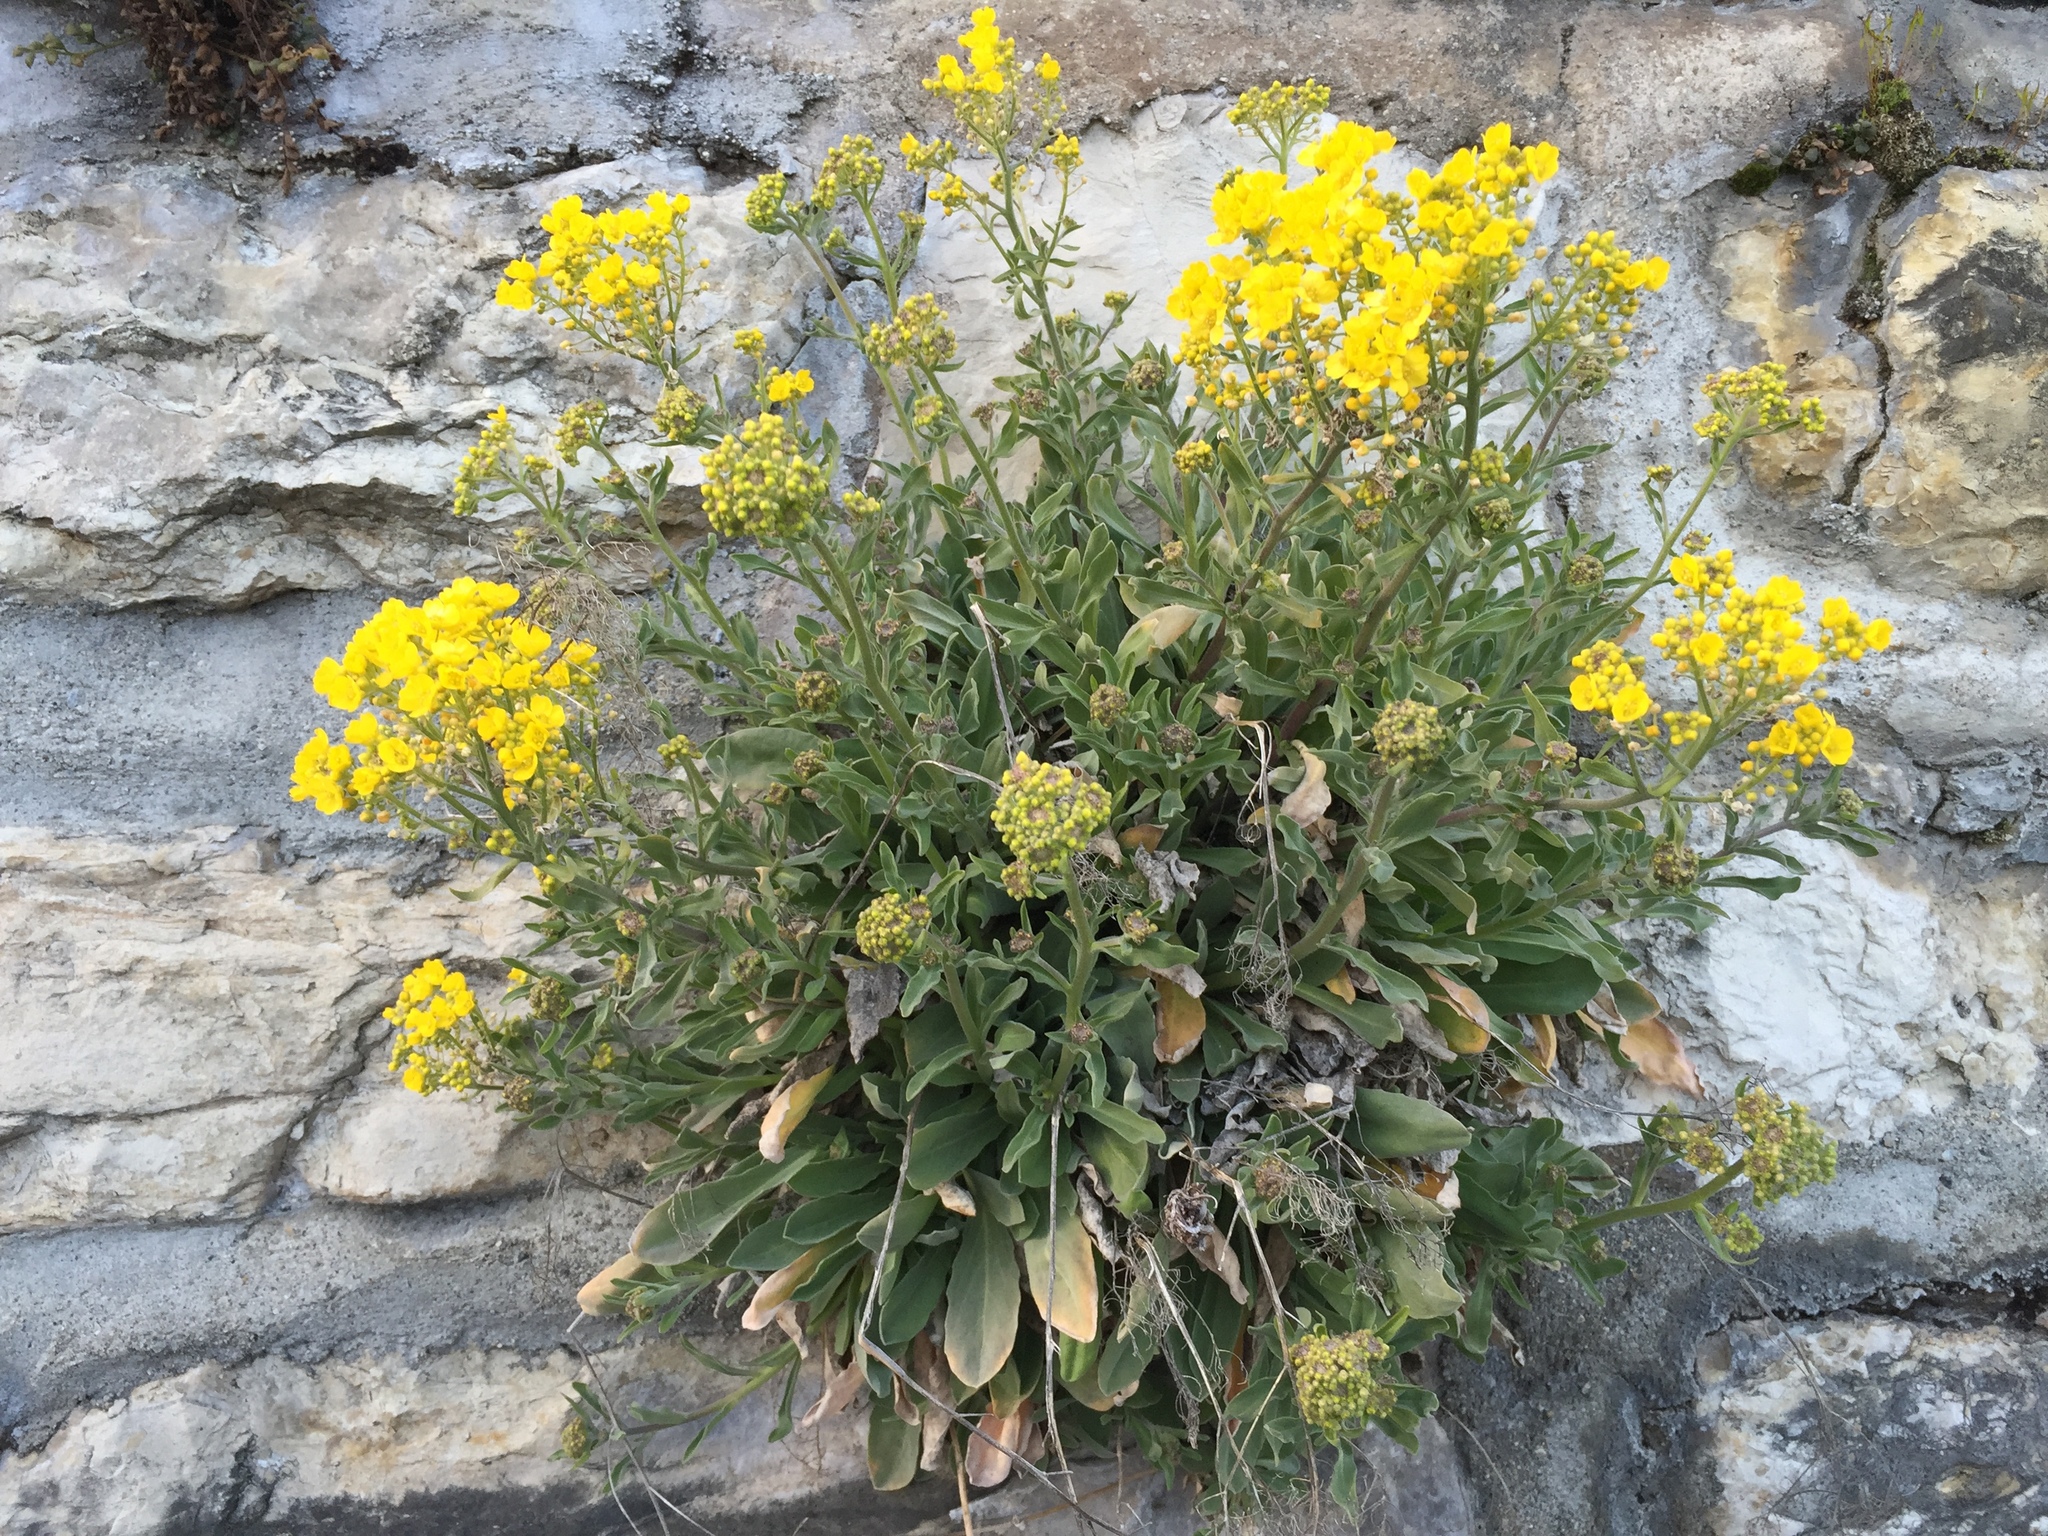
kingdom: Plantae
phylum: Tracheophyta
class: Magnoliopsida
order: Brassicales
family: Brassicaceae
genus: Aurinia
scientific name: Aurinia saxatilis
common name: Golden-tuft alyssum
